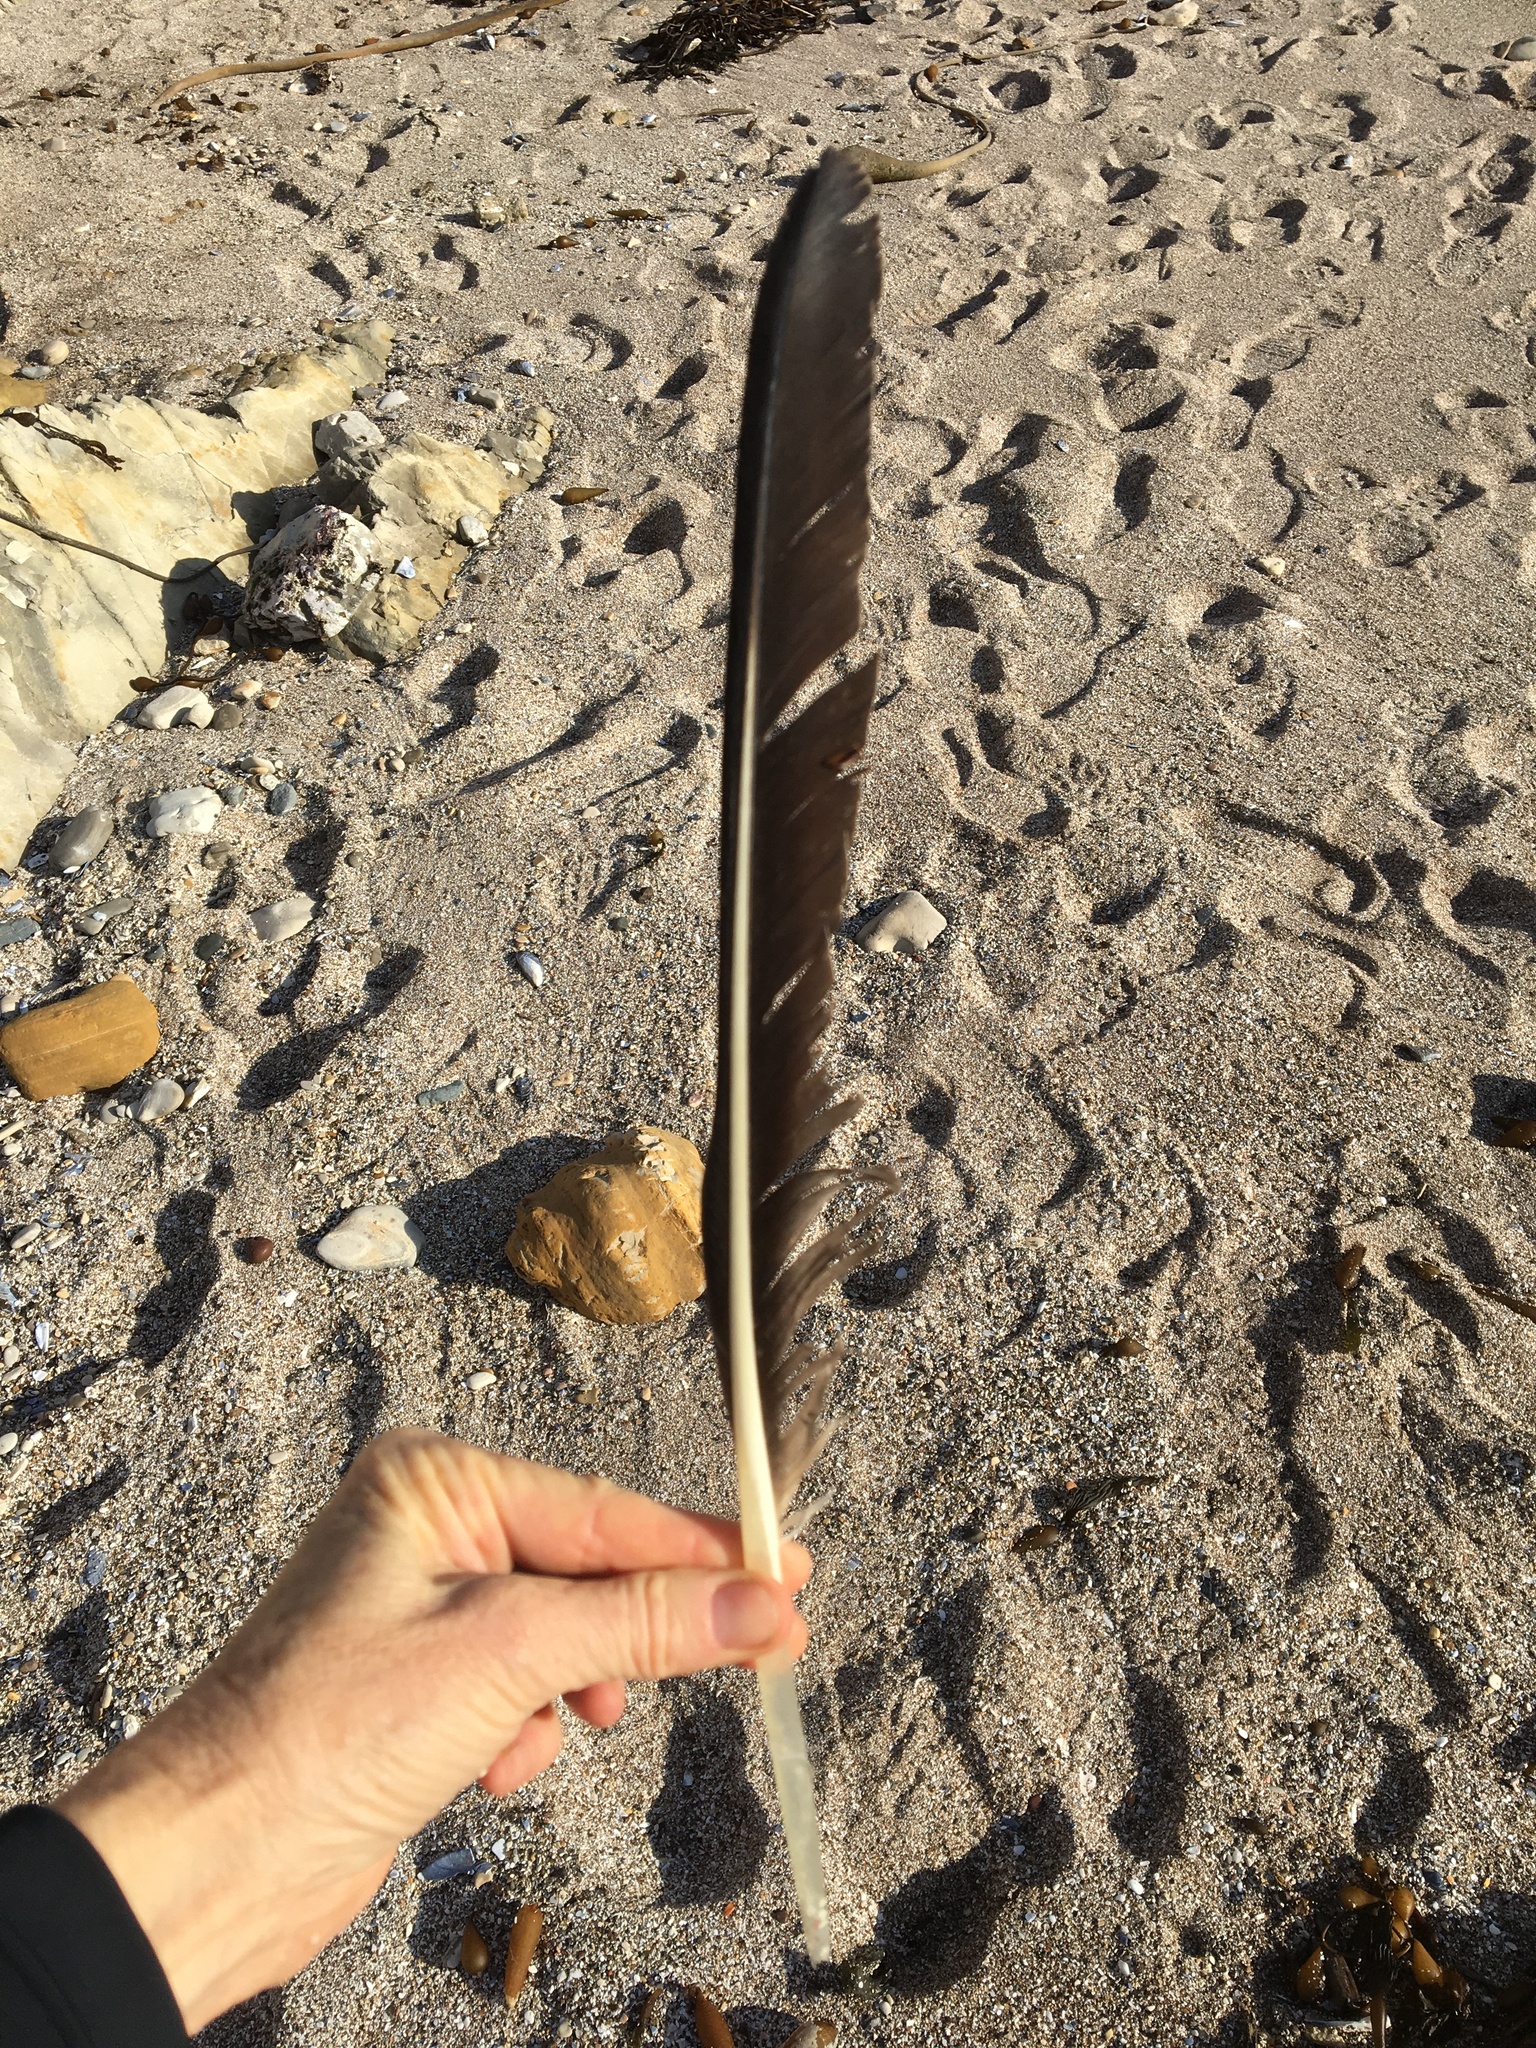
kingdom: Animalia
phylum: Chordata
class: Aves
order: Pelecaniformes
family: Pelecanidae
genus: Pelecanus
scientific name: Pelecanus occidentalis
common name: Brown pelican
